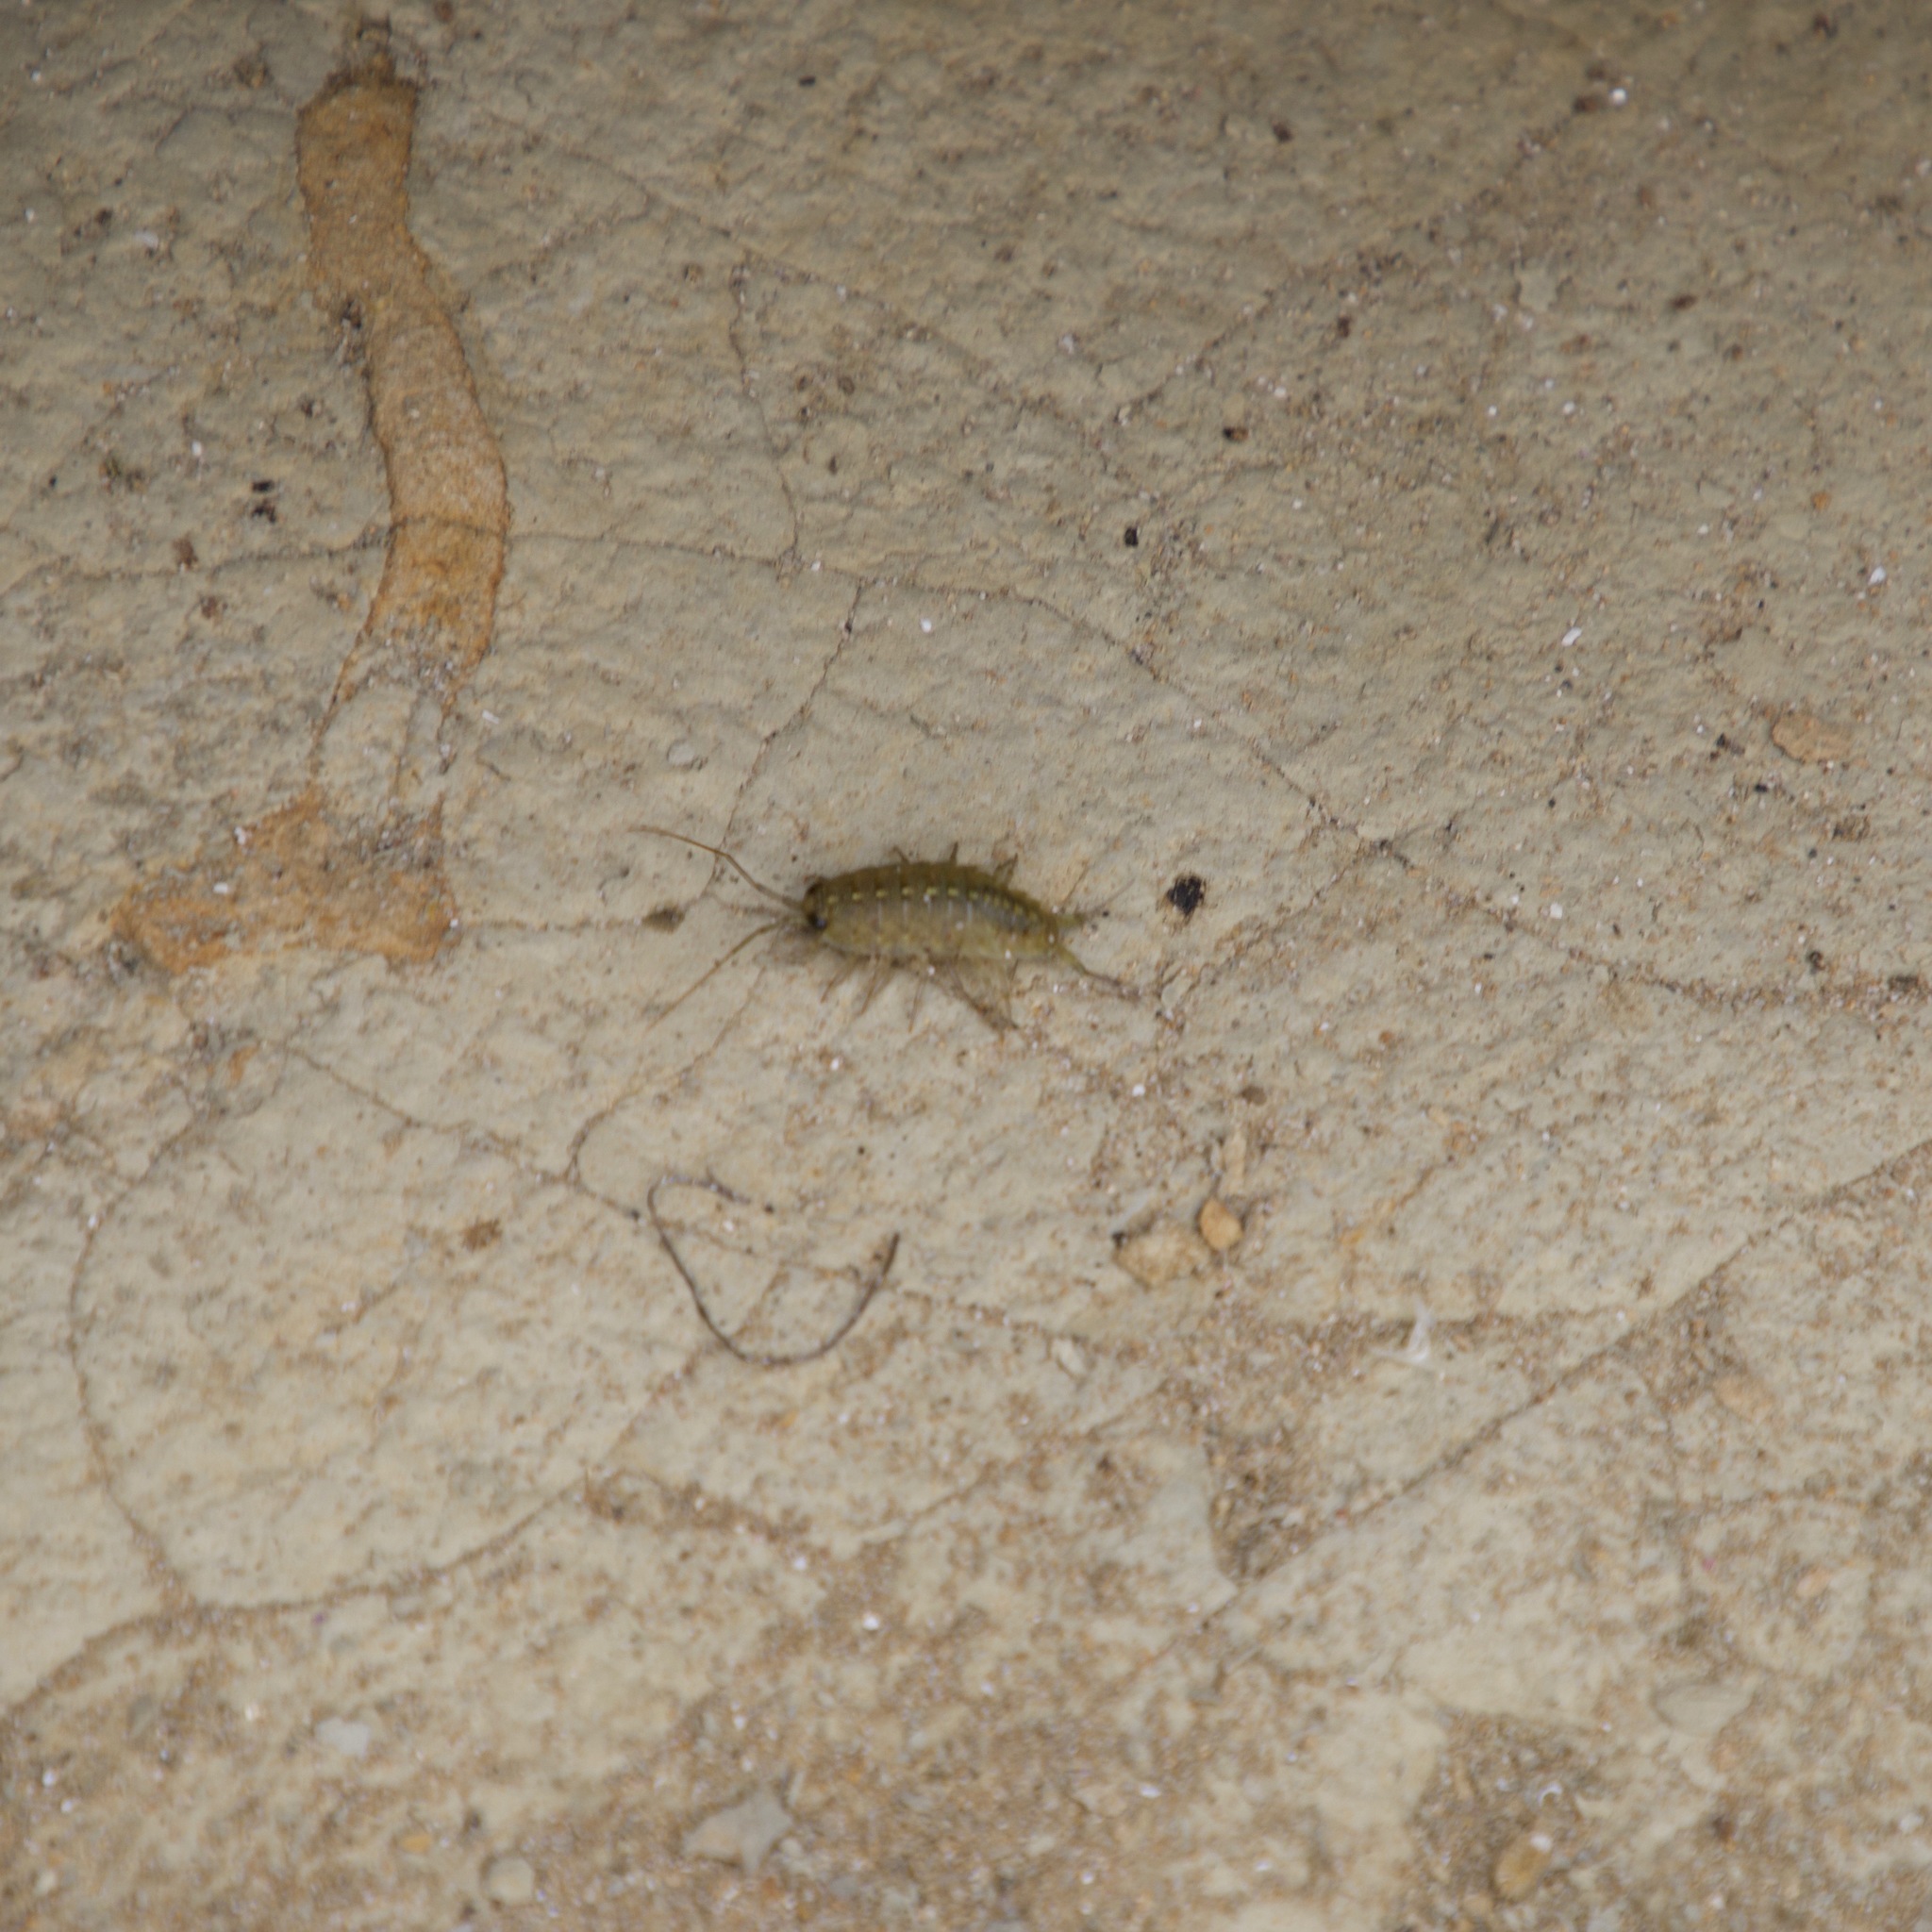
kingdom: Animalia
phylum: Arthropoda
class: Malacostraca
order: Isopoda
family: Ligiidae
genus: Ligia
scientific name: Ligia occidentalis
